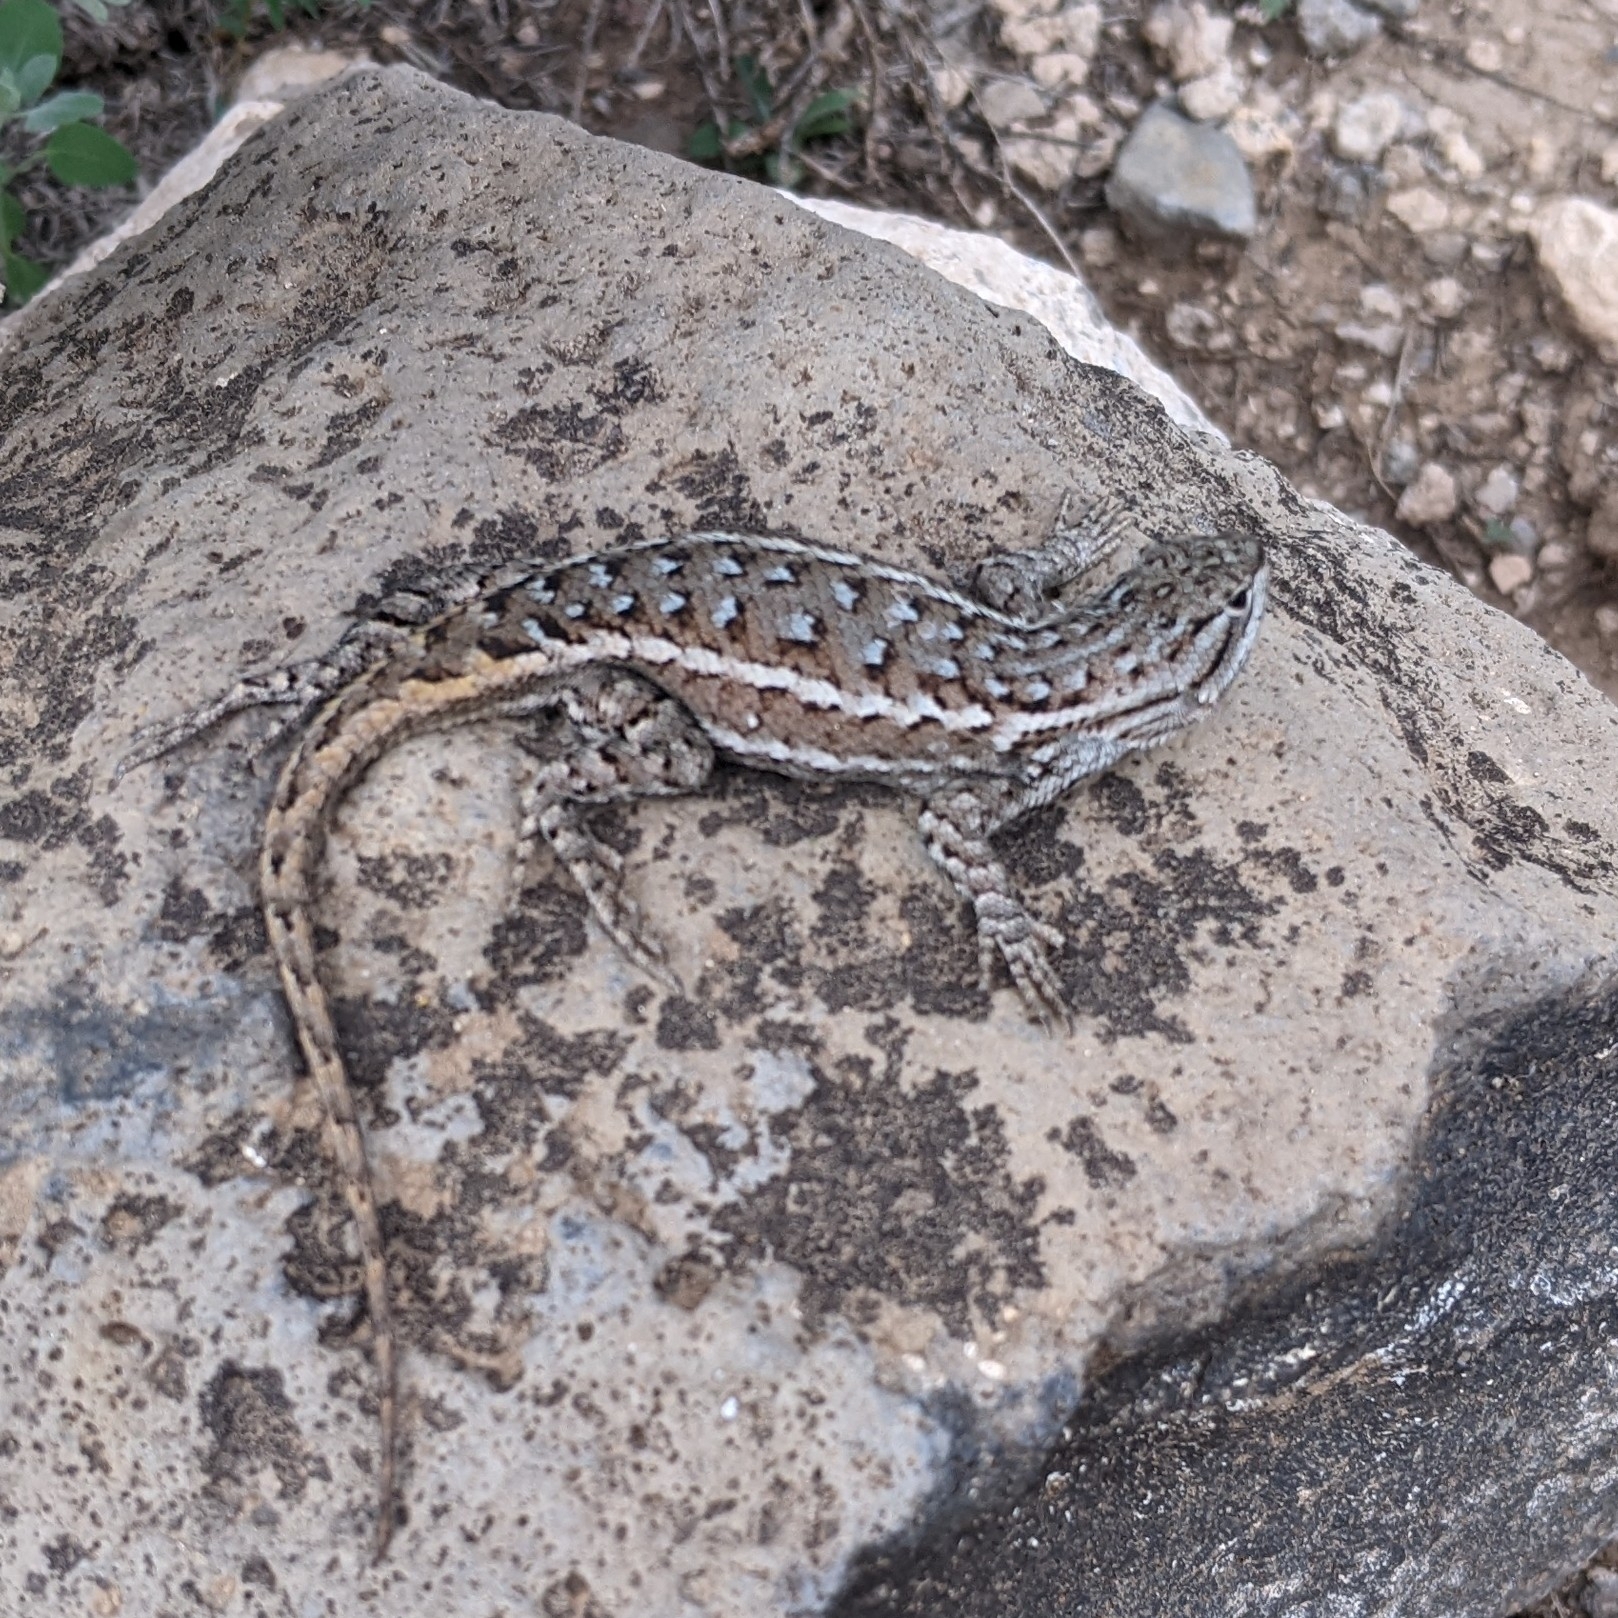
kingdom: Animalia
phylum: Chordata
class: Squamata
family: Phrynosomatidae
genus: Sceloporus
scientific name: Sceloporus
